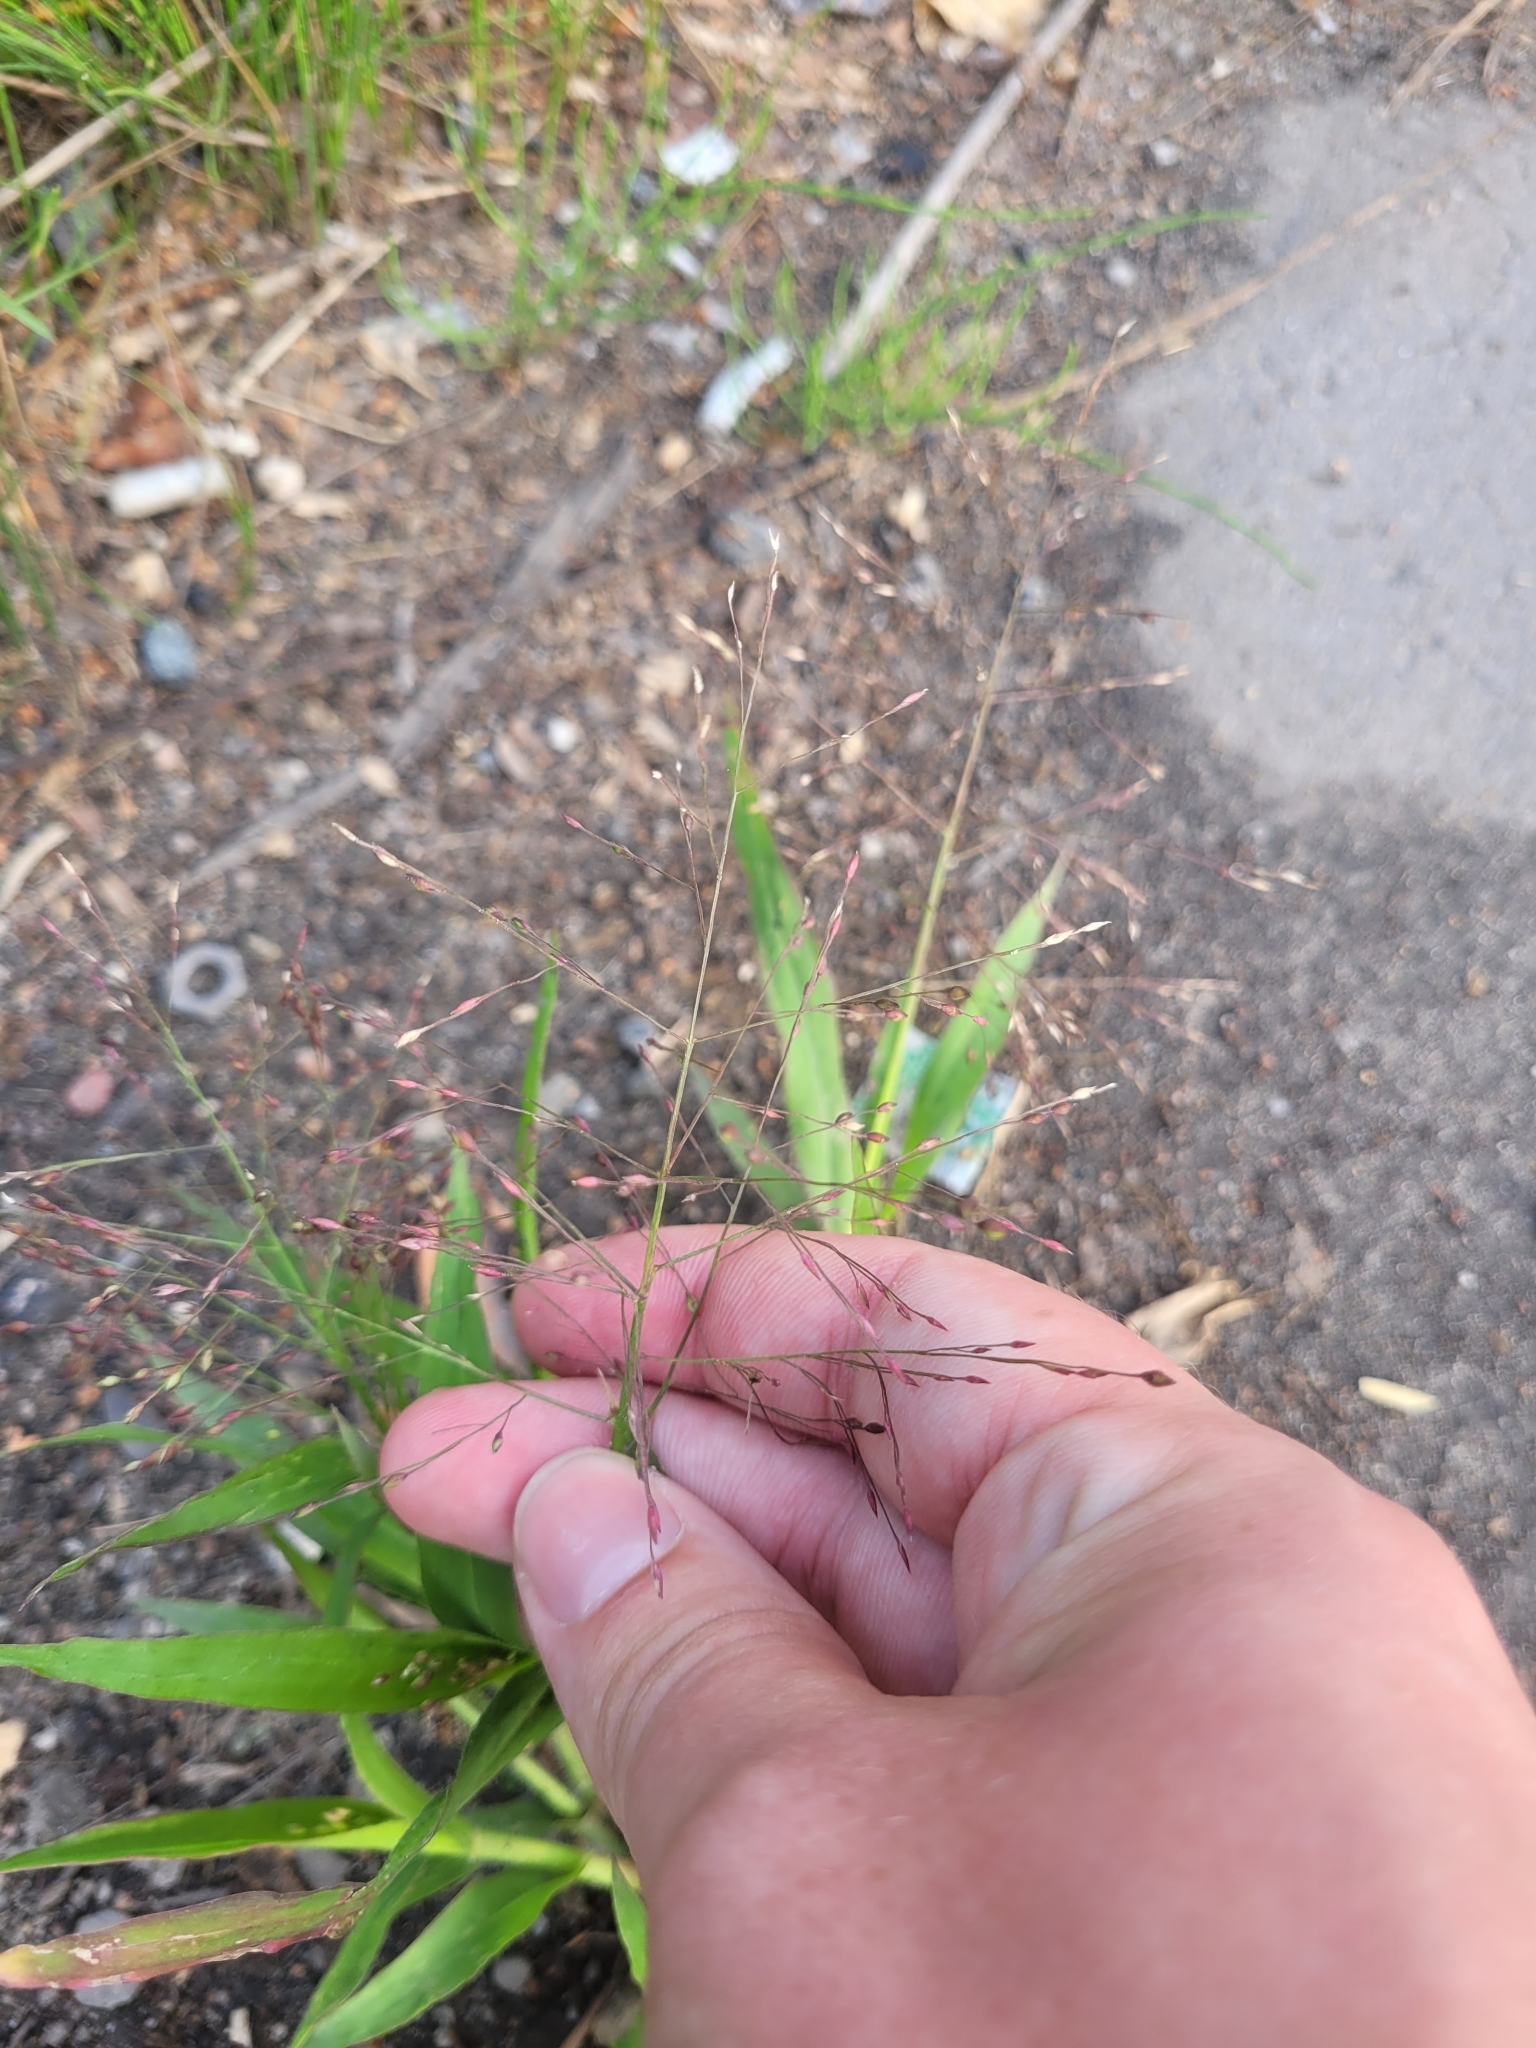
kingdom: Plantae
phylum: Tracheophyta
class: Liliopsida
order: Poales
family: Poaceae
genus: Panicum
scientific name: Panicum capillare
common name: Witch-grass
